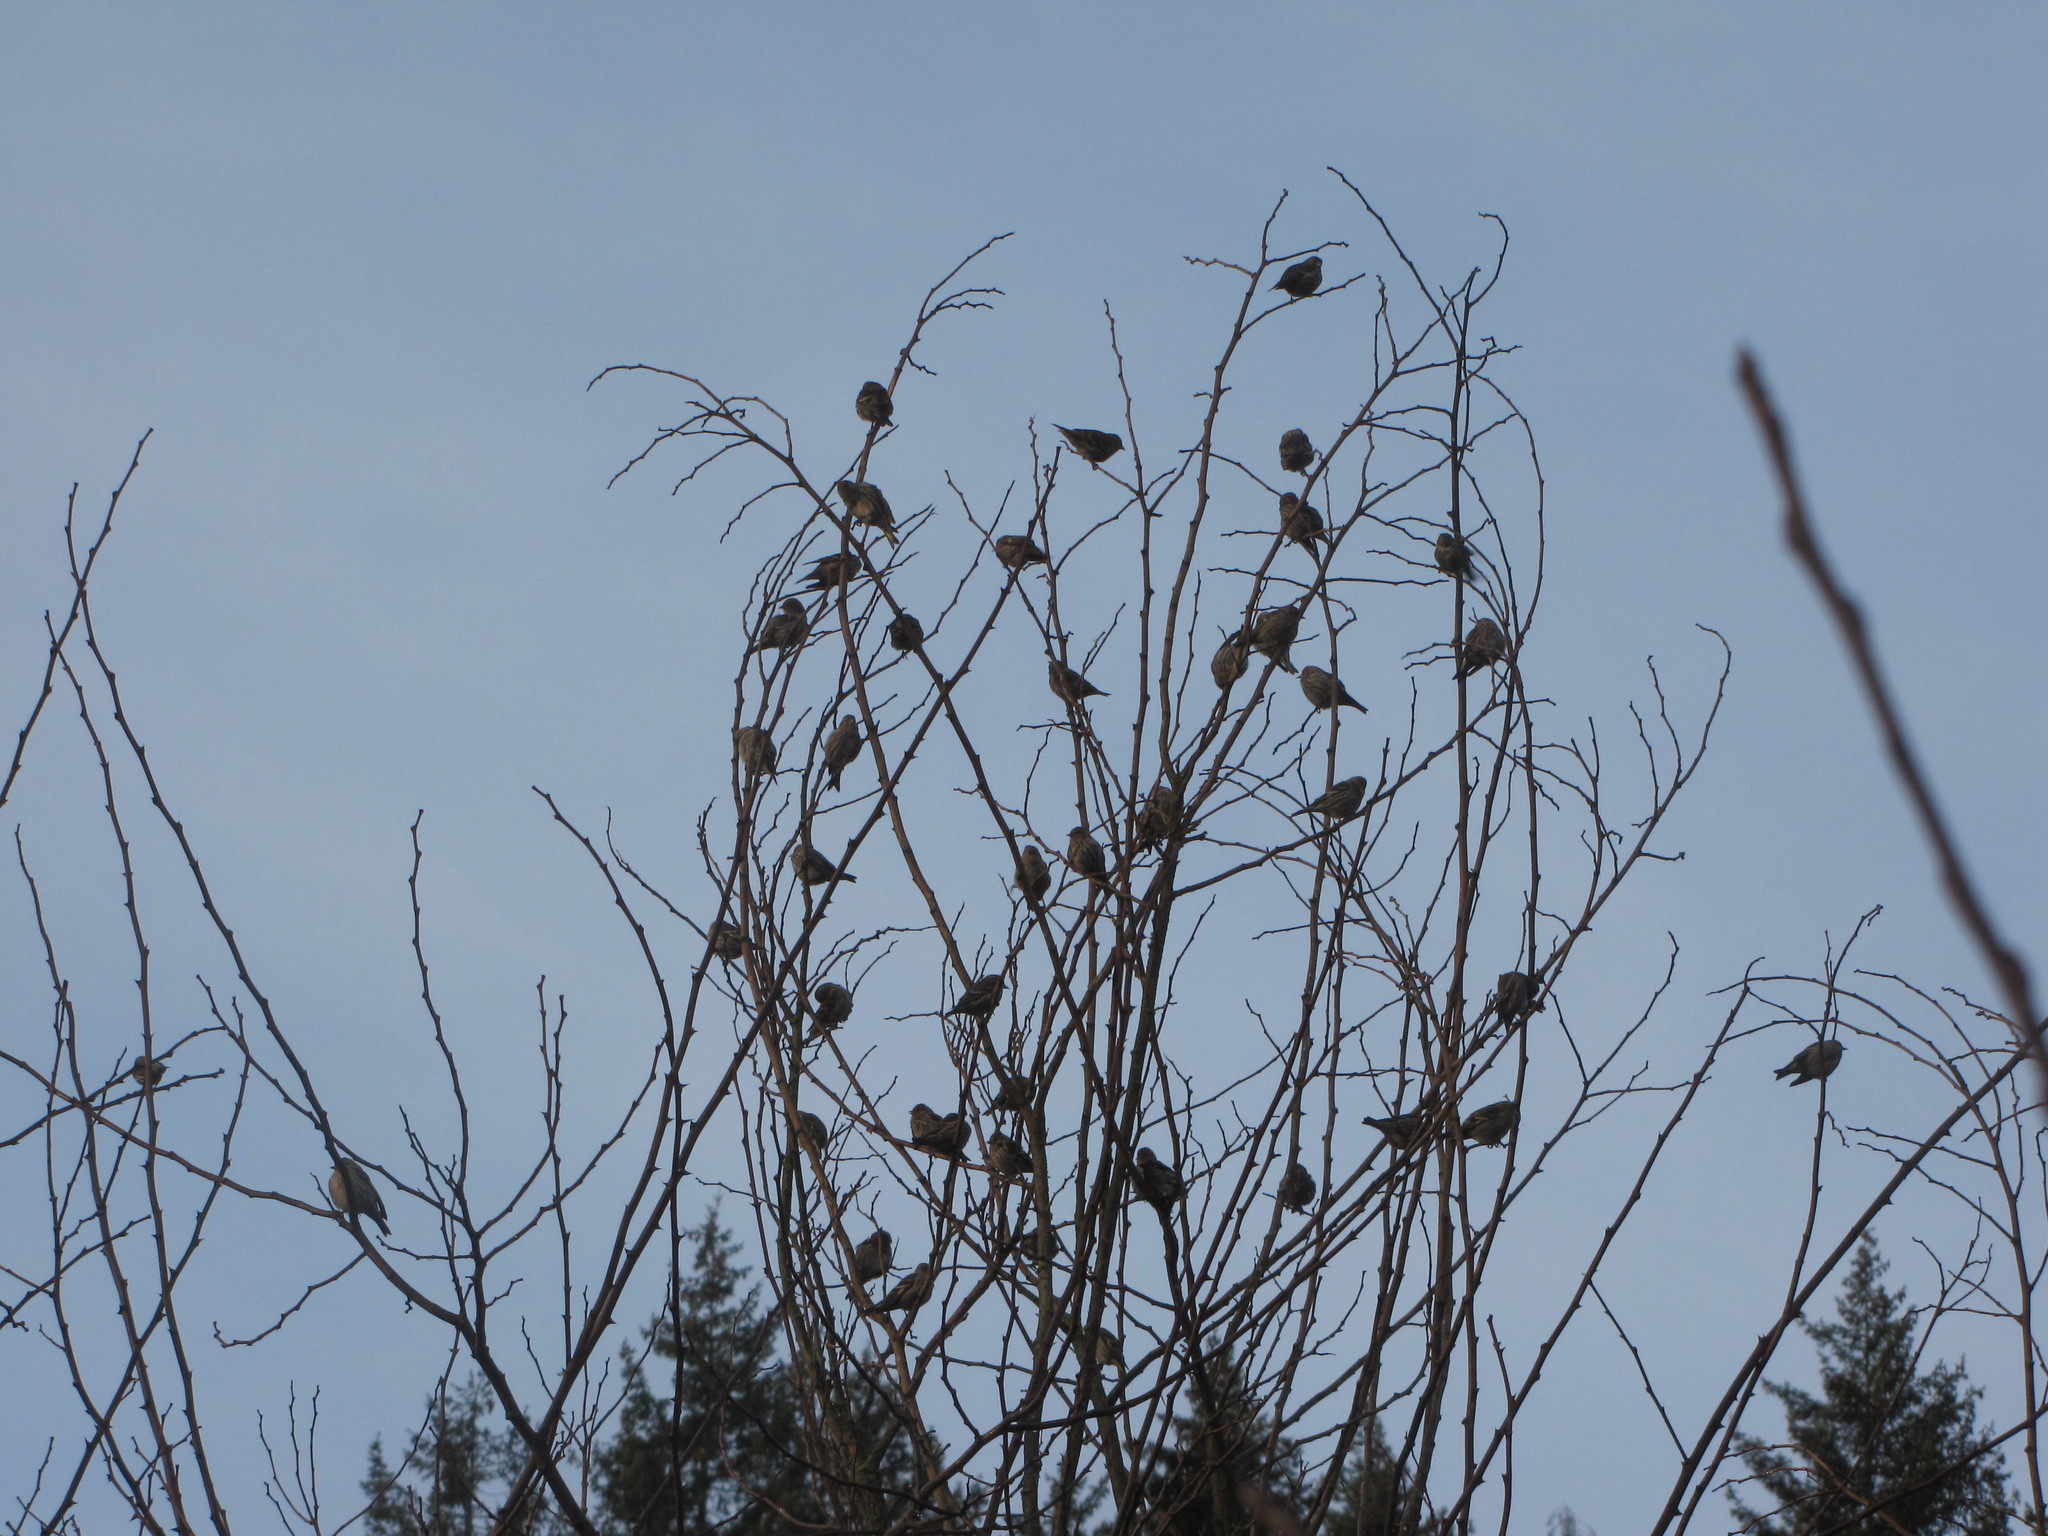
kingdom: Animalia
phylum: Chordata
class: Aves
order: Passeriformes
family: Fringillidae
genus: Spinus
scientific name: Spinus pinus
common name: Pine siskin
